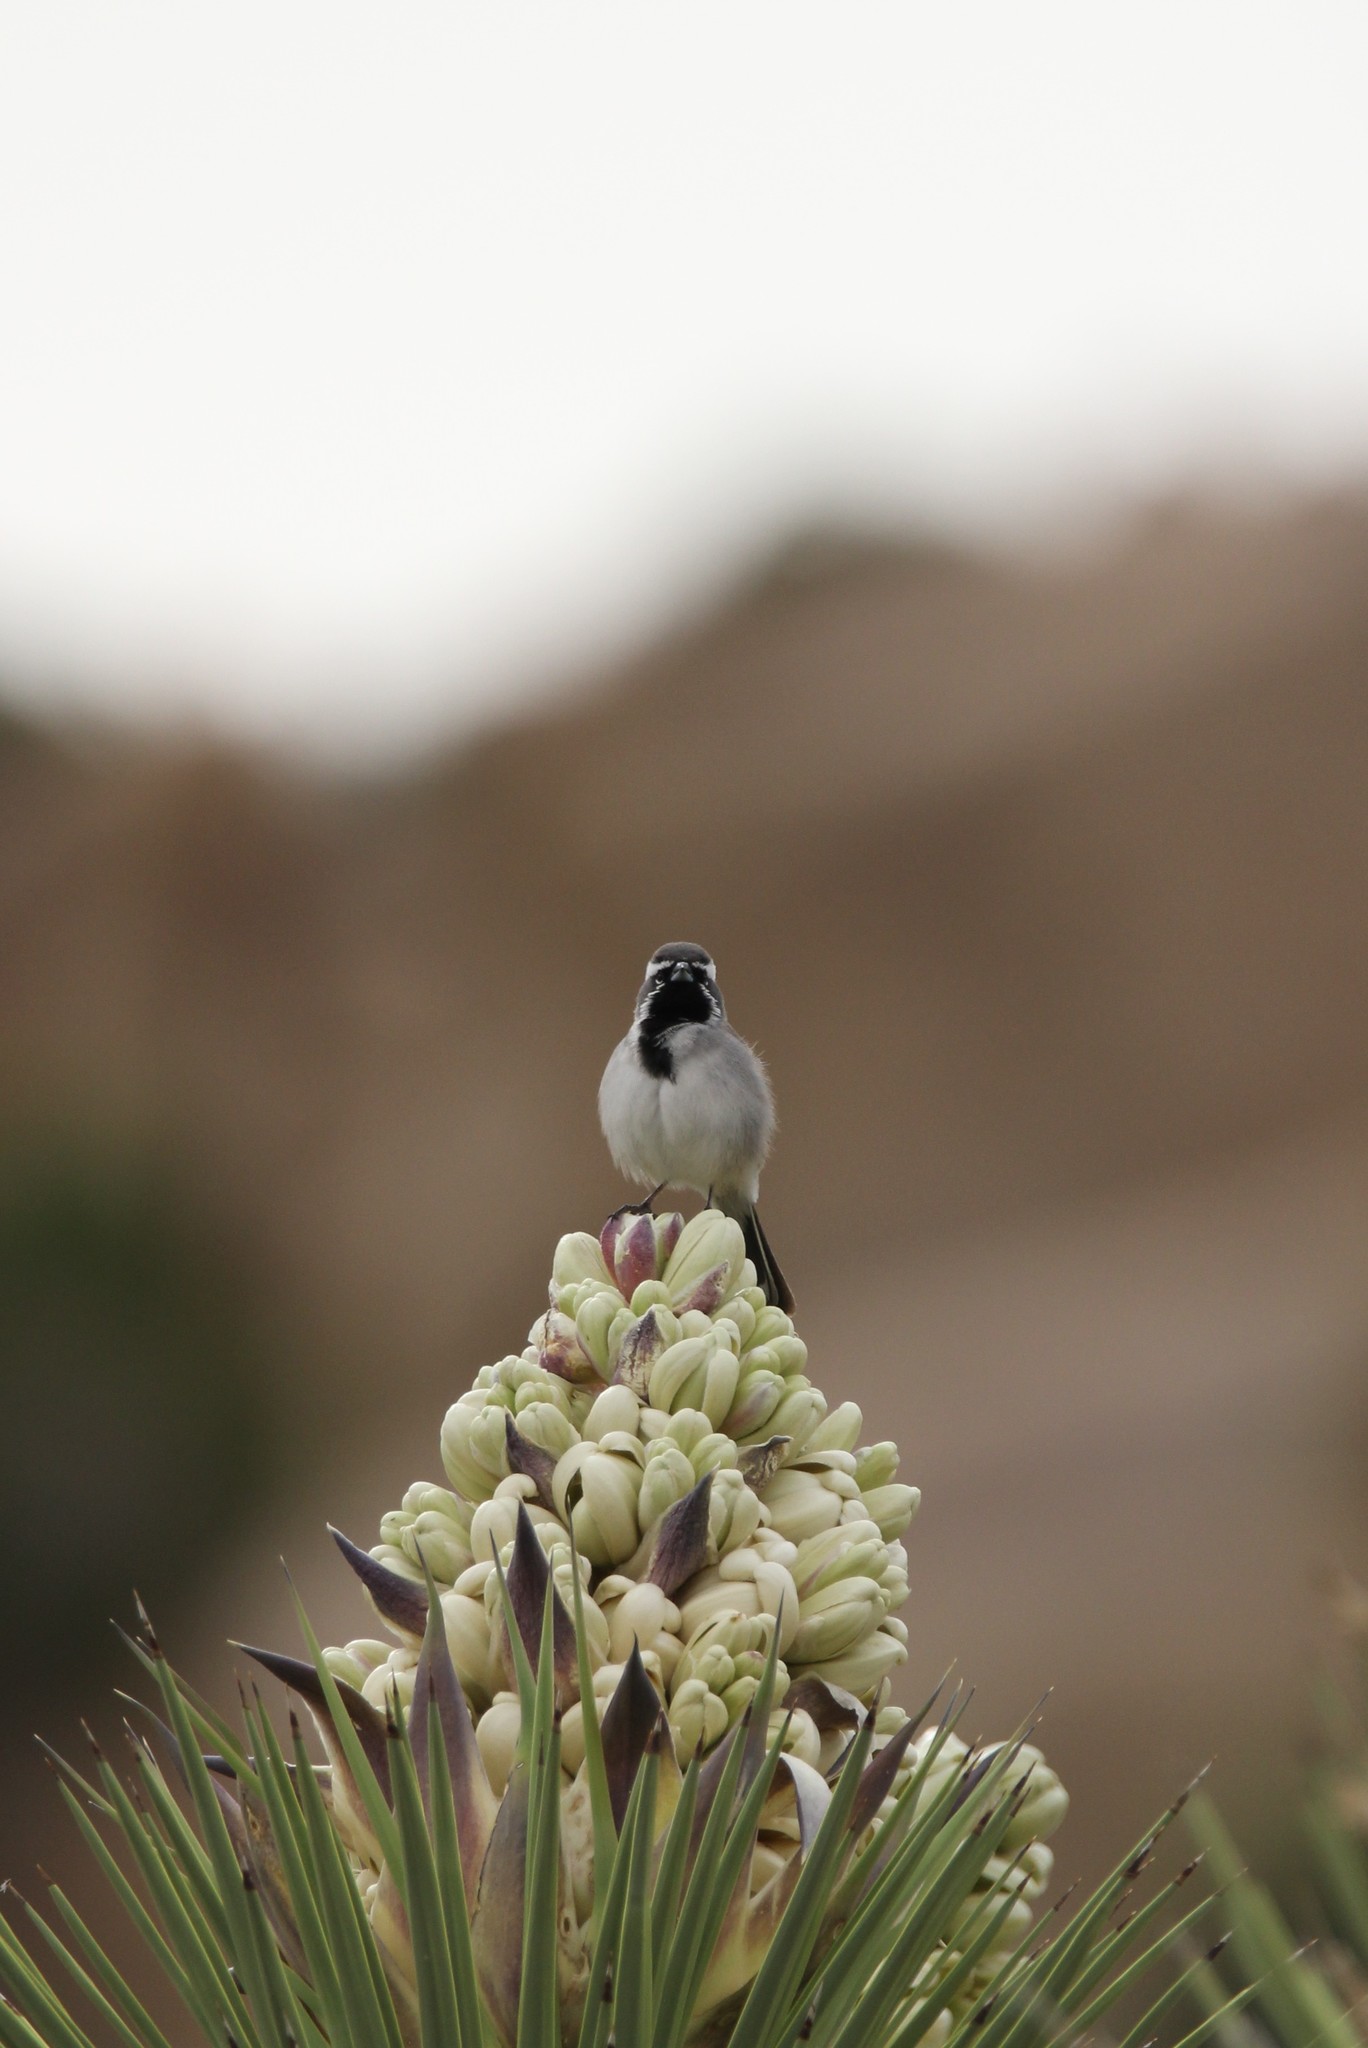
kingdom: Animalia
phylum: Chordata
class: Aves
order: Passeriformes
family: Passerellidae
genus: Amphispiza
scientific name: Amphispiza bilineata
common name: Black-throated sparrow
